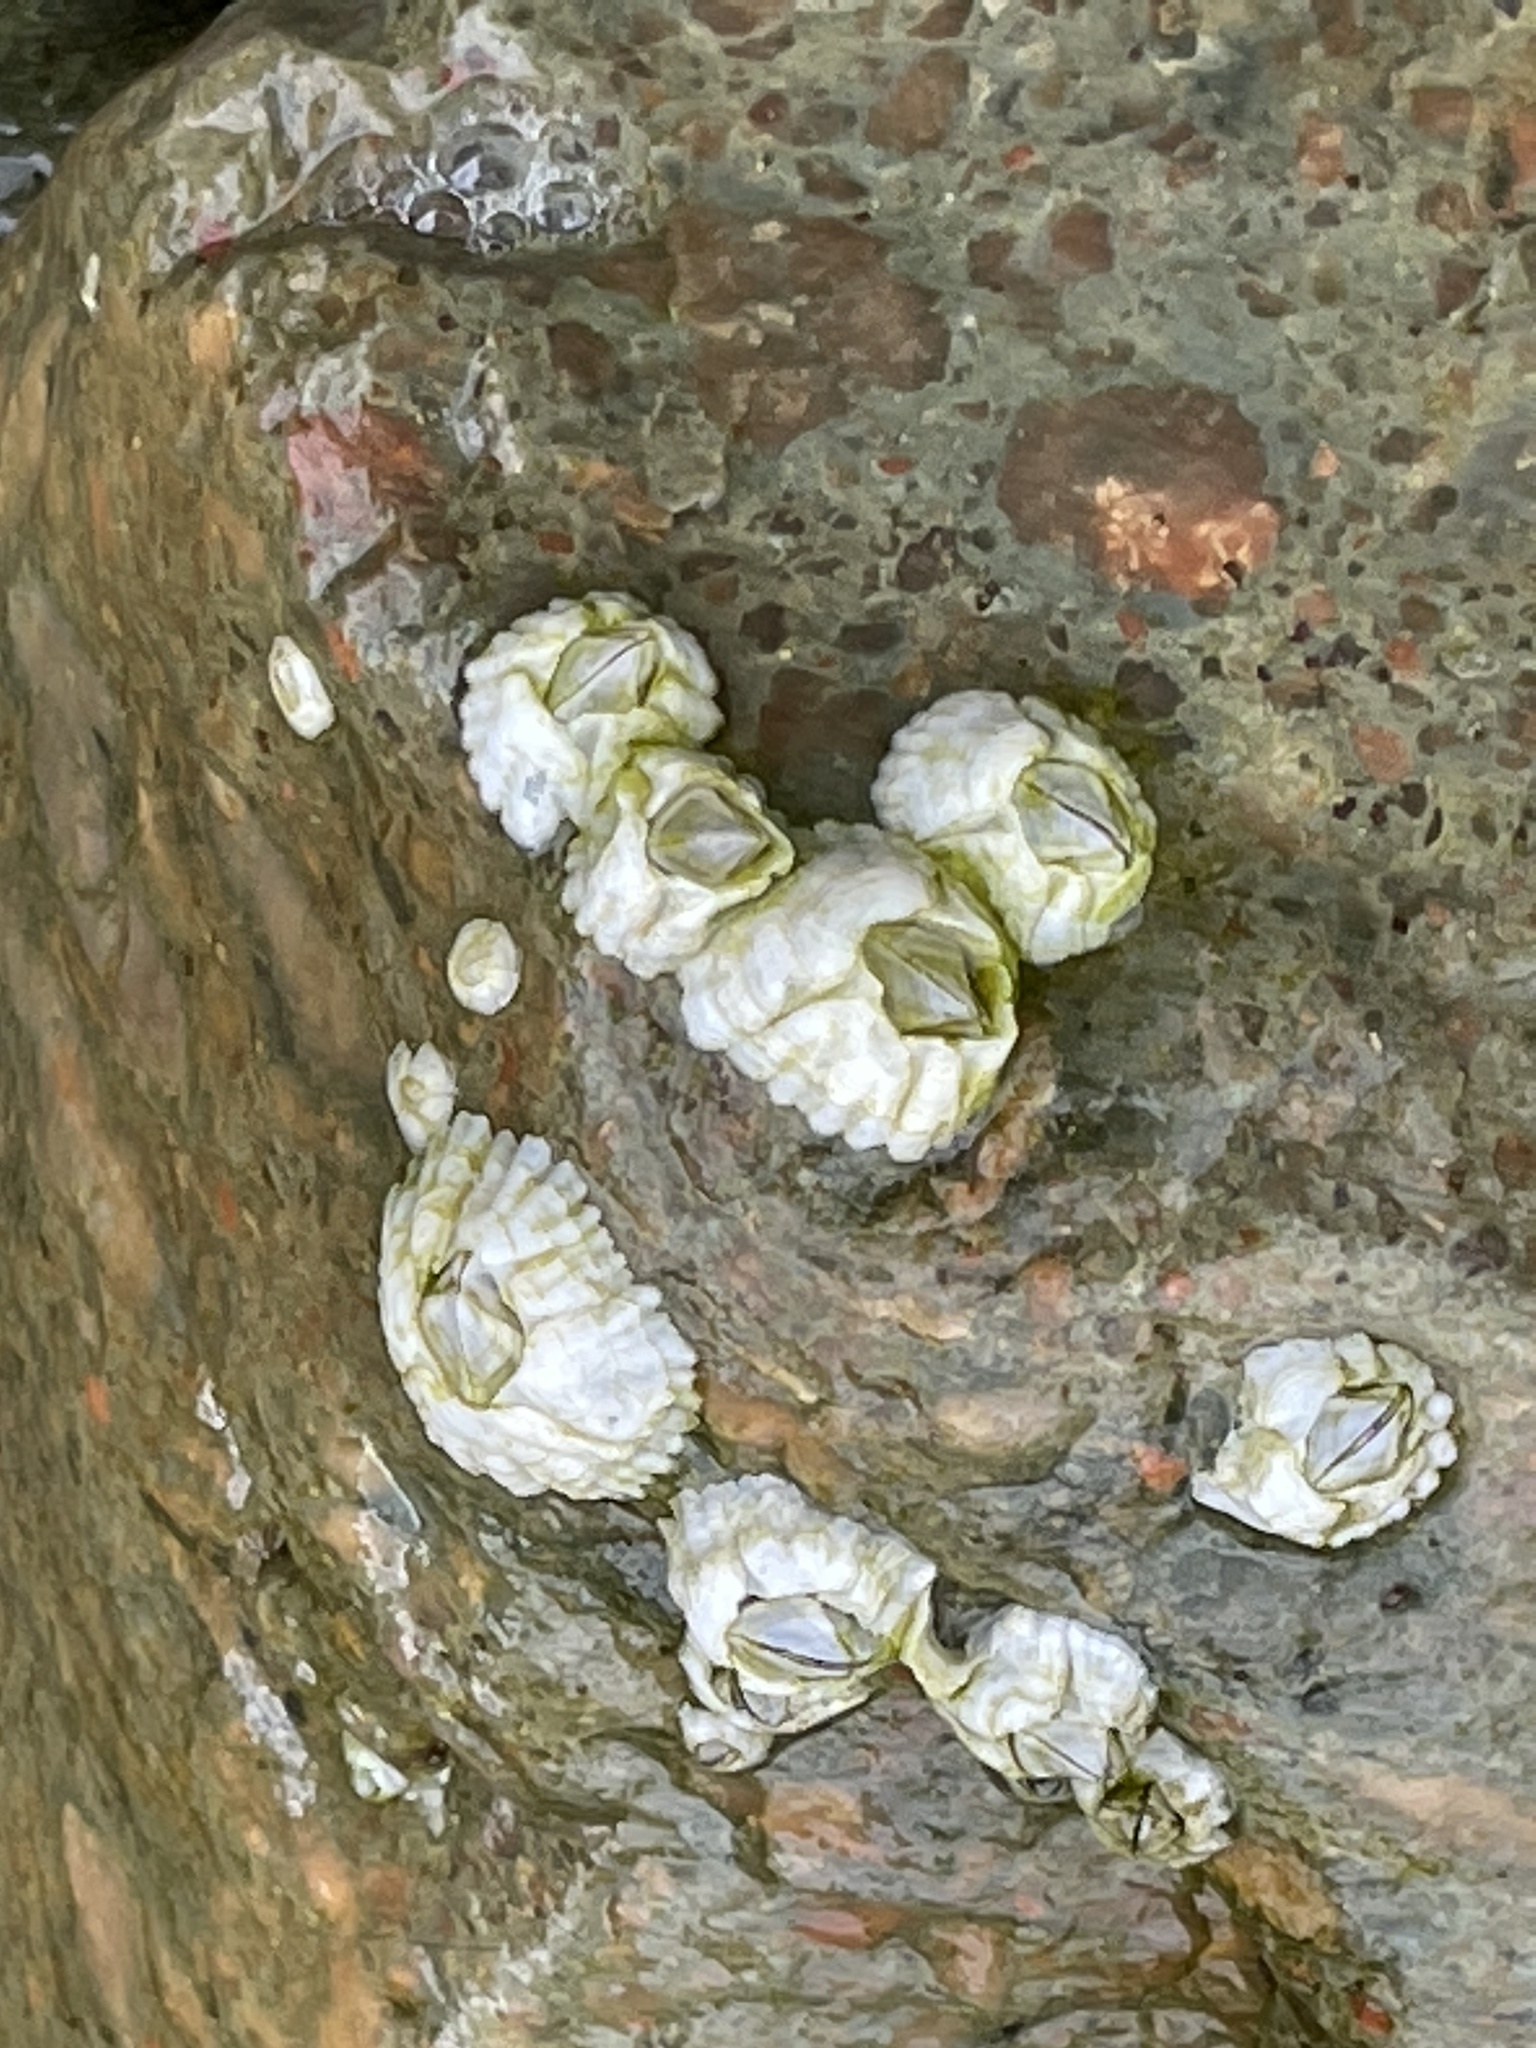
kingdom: Animalia
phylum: Arthropoda
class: Maxillopoda
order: Sessilia
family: Archaeobalanidae
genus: Semibalanus
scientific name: Semibalanus balanoides
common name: Acorn barnacle
